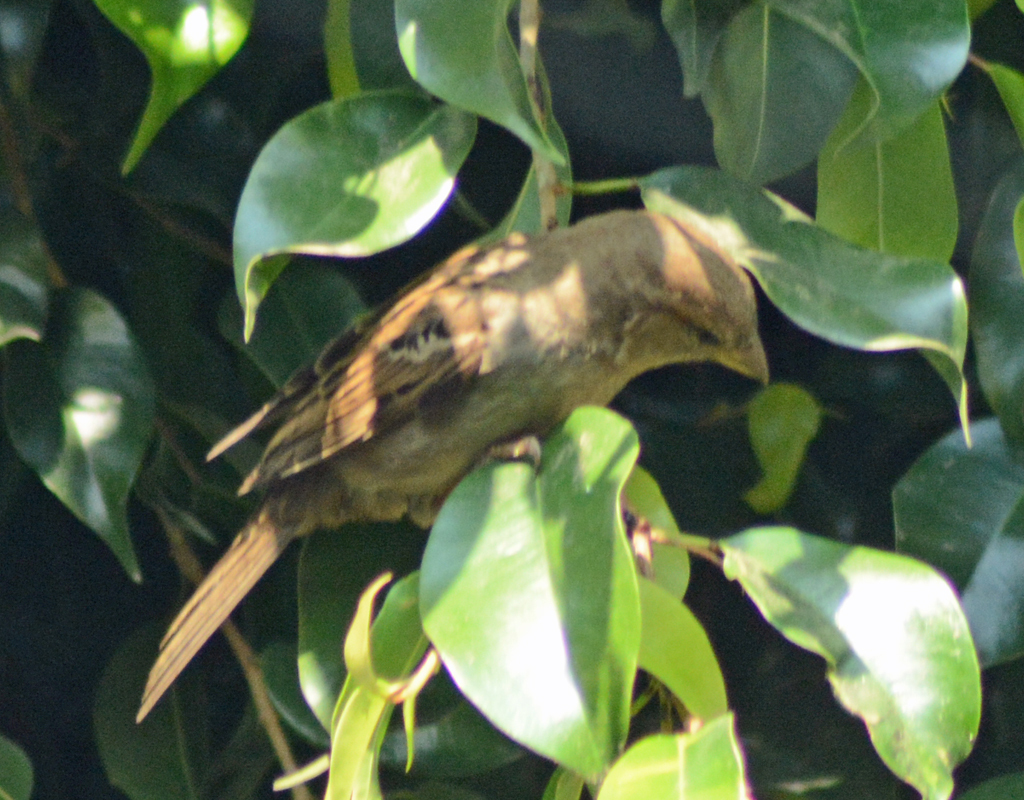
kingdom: Animalia
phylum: Chordata
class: Aves
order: Passeriformes
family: Passeridae
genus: Passer
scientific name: Passer domesticus
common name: House sparrow
